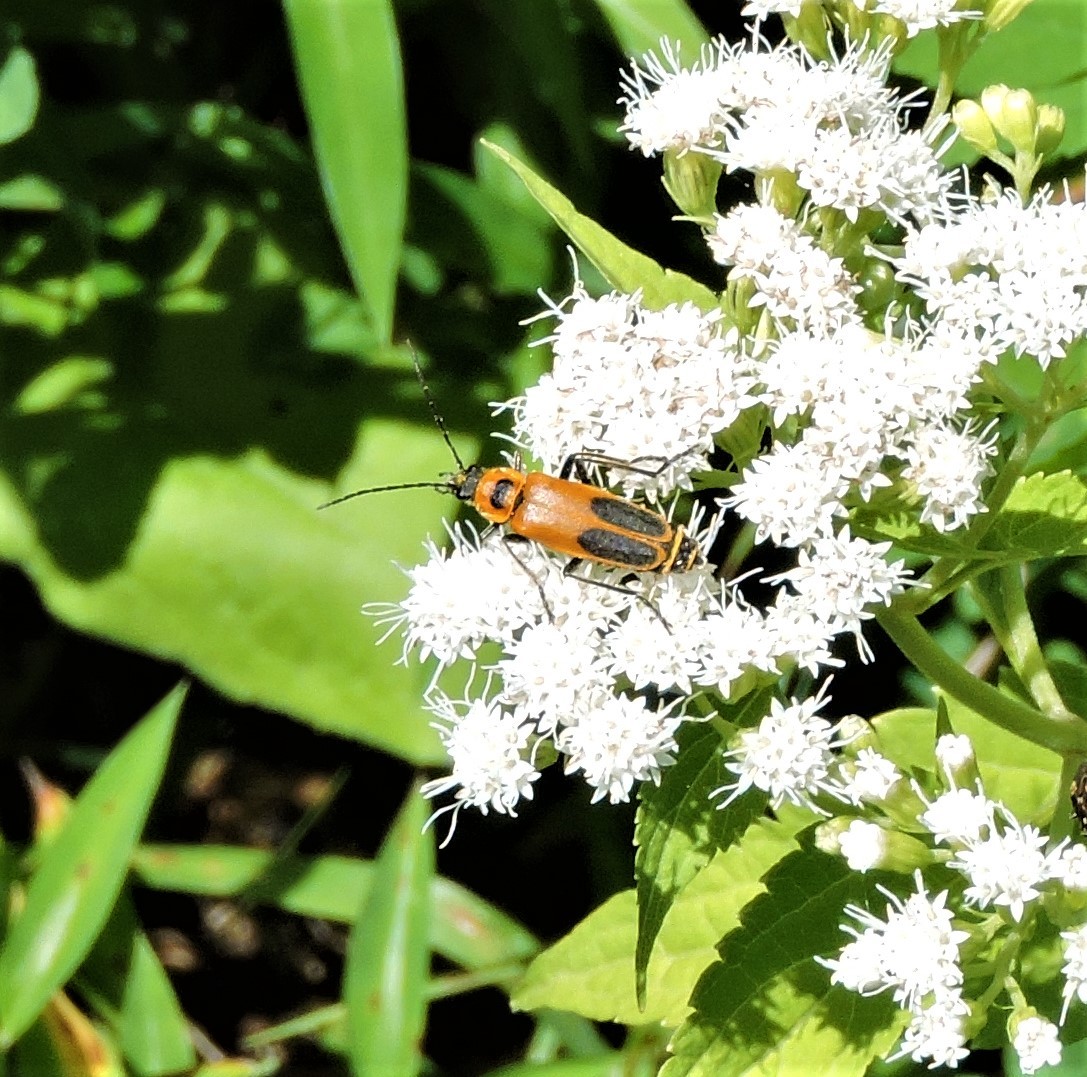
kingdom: Animalia
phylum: Arthropoda
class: Insecta
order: Coleoptera
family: Cantharidae
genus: Chauliognathus
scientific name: Chauliognathus pensylvanicus
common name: Goldenrod soldier beetle
